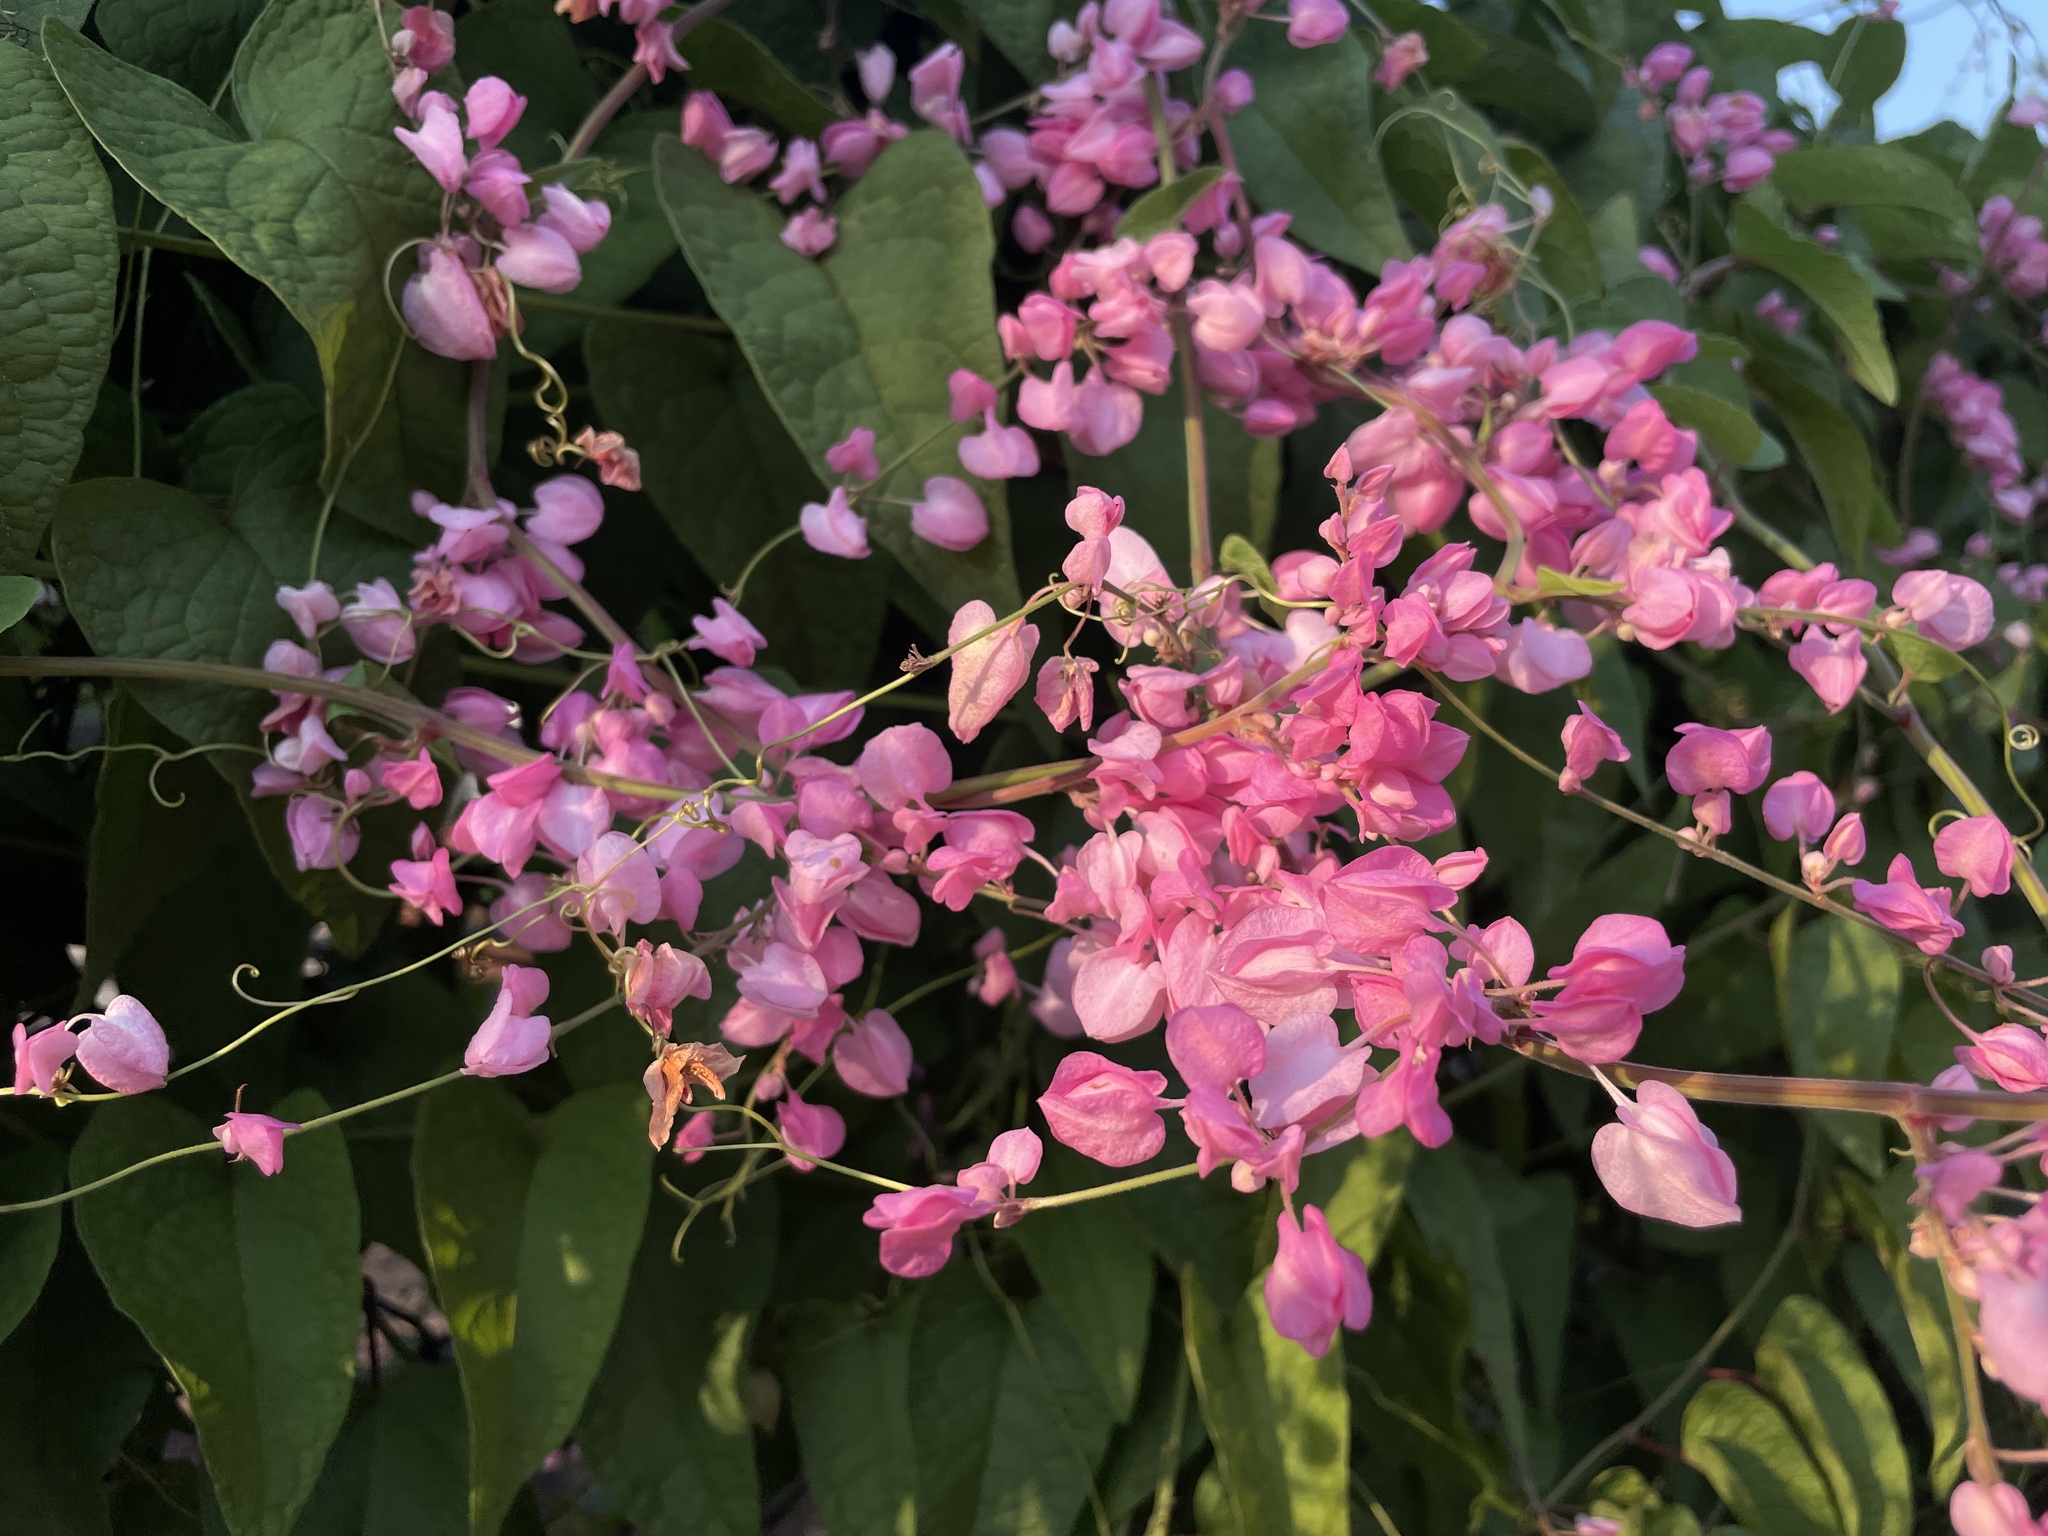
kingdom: Plantae
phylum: Tracheophyta
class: Magnoliopsida
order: Caryophyllales
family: Polygonaceae
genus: Antigonon
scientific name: Antigonon leptopus
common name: Coral vine
